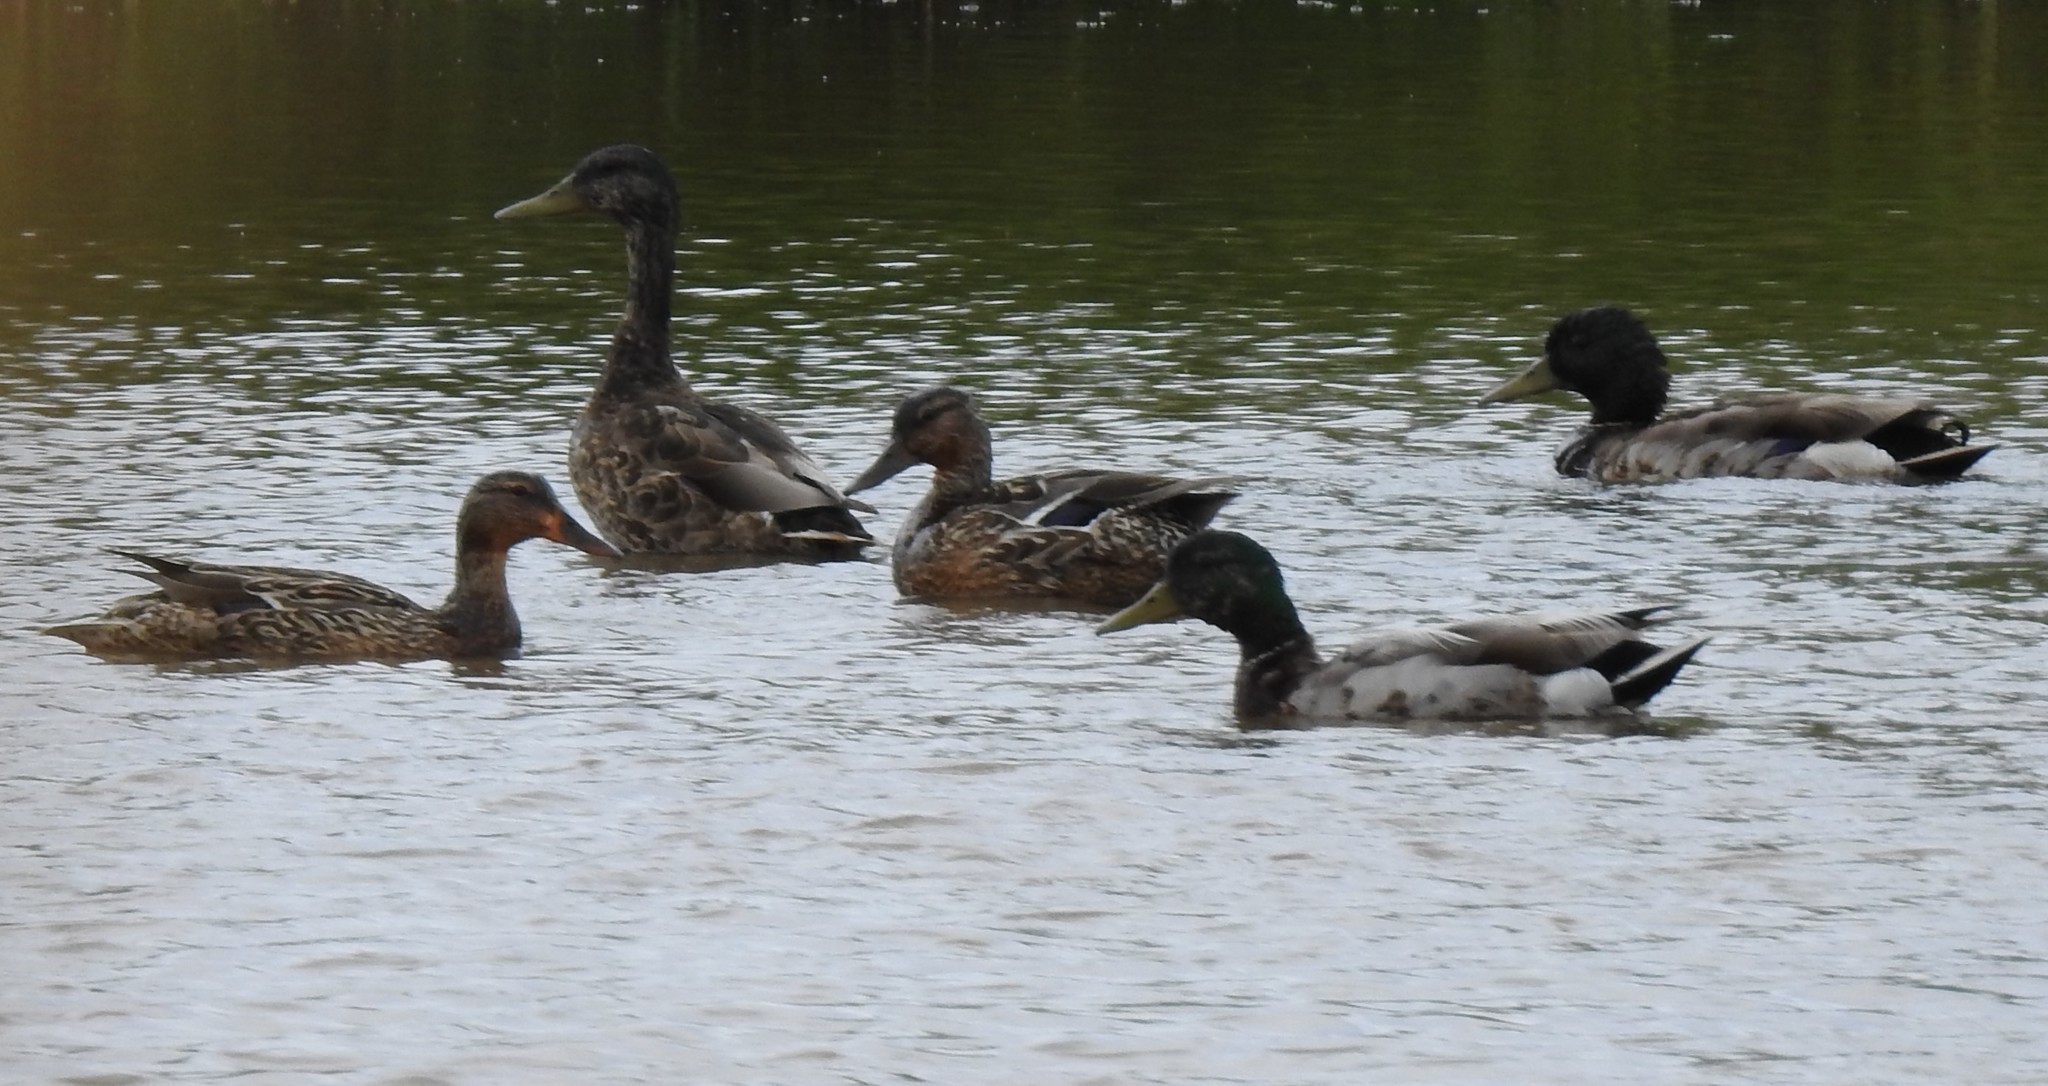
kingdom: Animalia
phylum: Chordata
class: Aves
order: Anseriformes
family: Anatidae
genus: Anas
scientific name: Anas platyrhynchos
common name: Mallard
